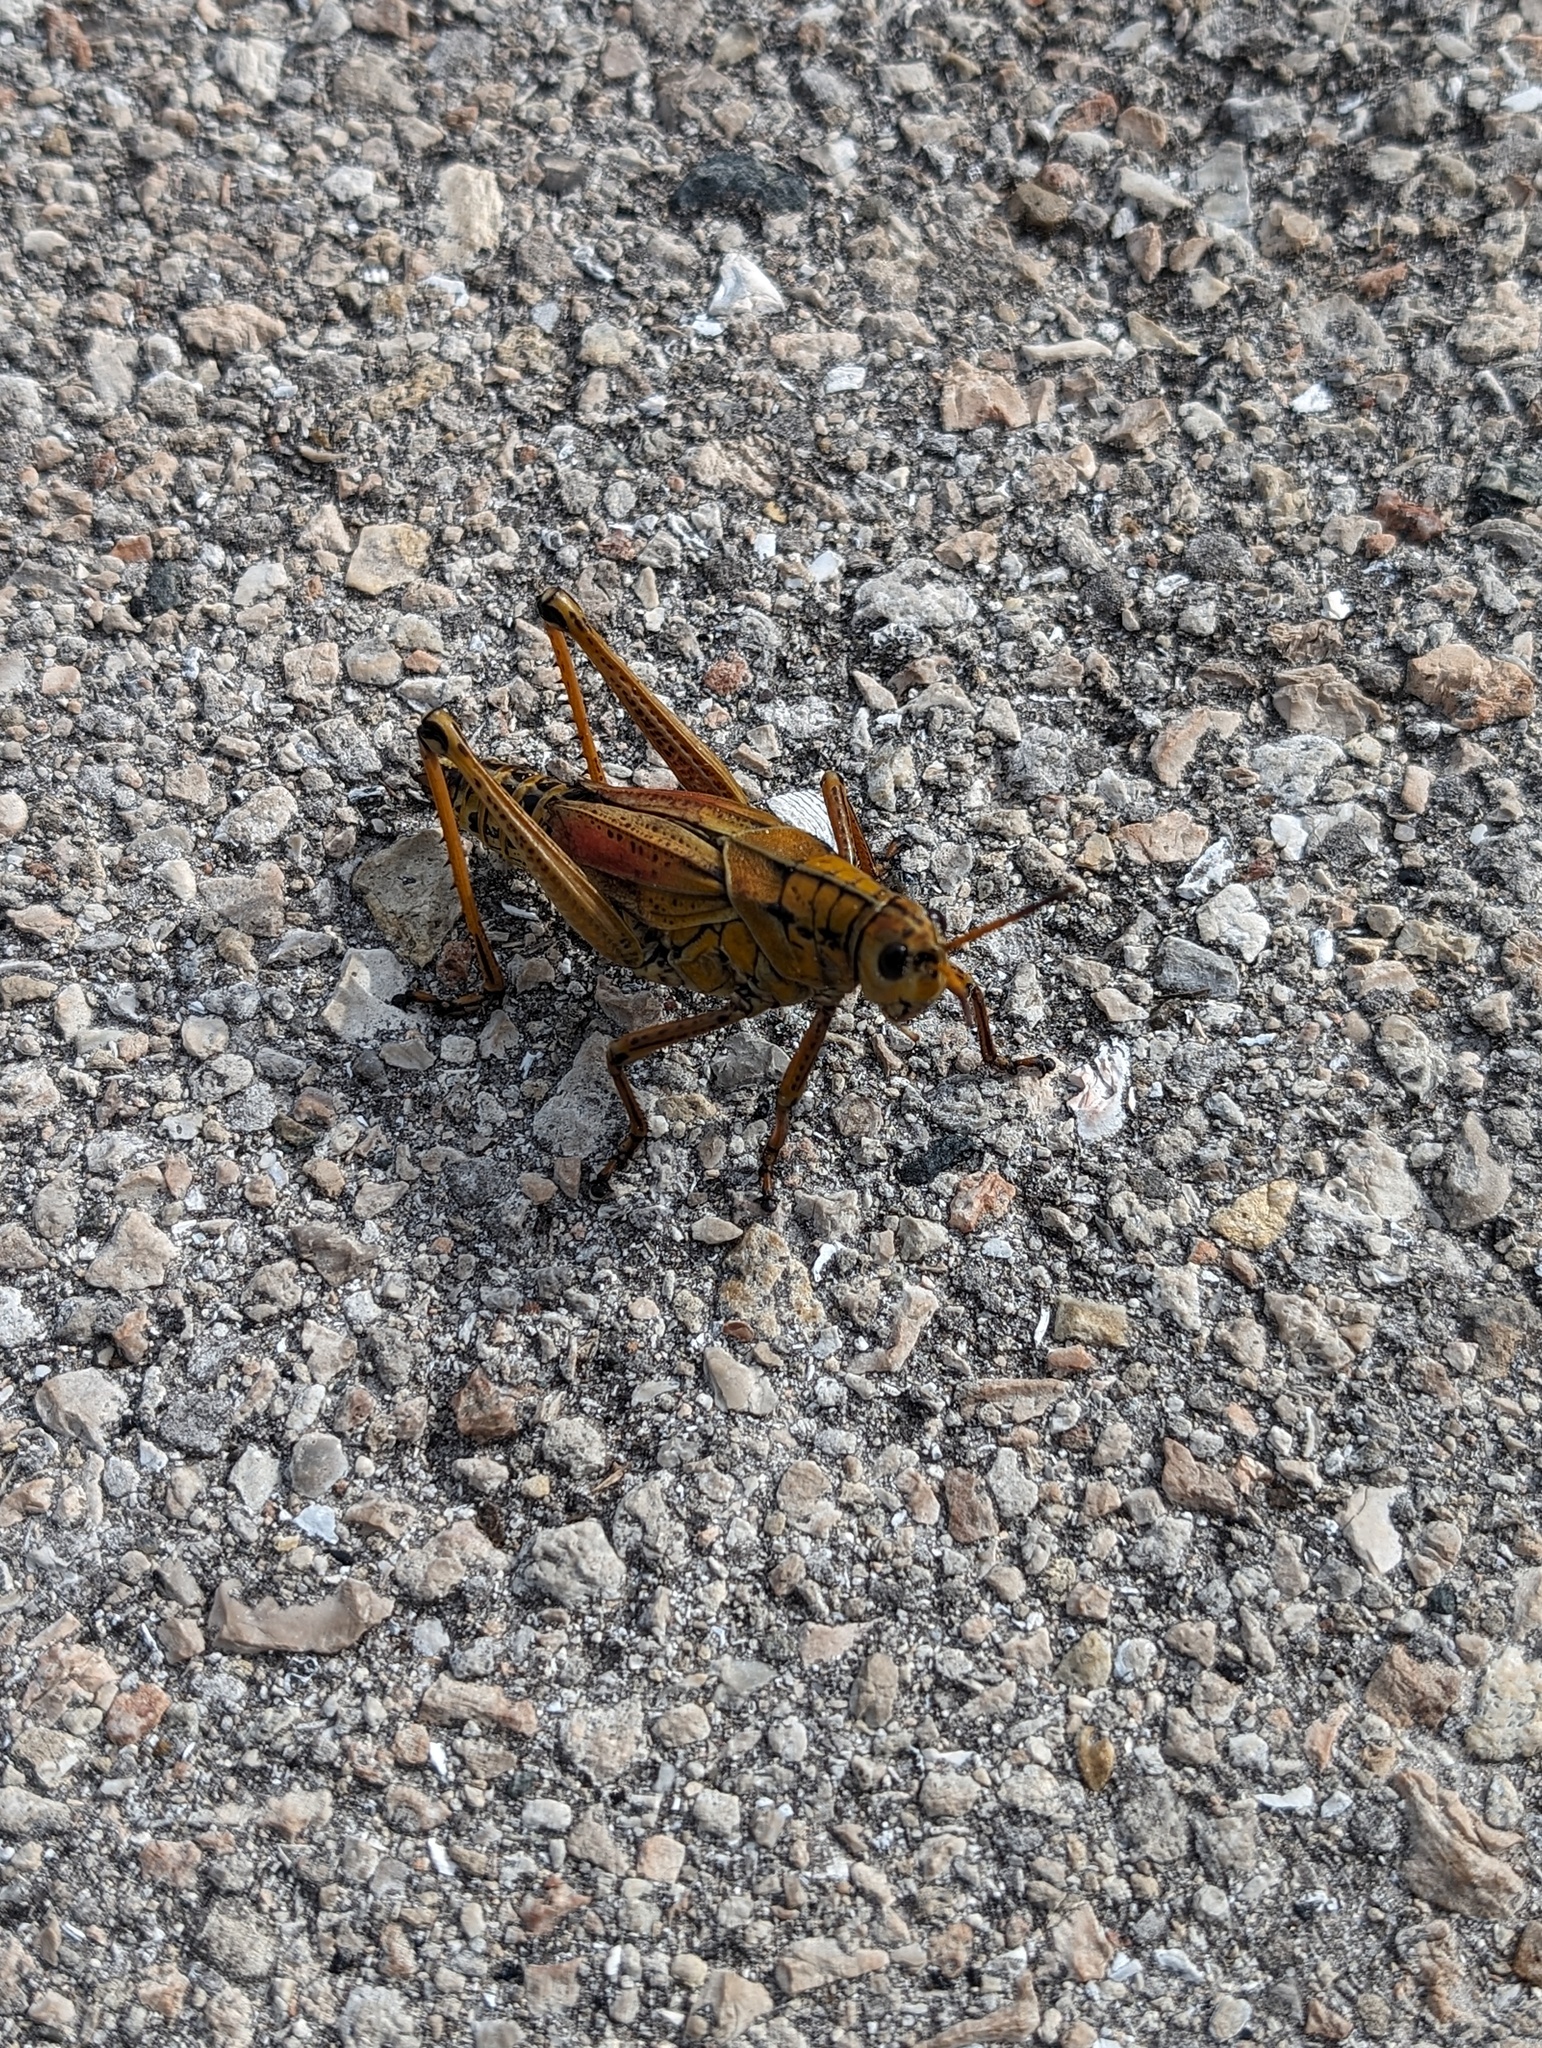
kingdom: Animalia
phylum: Arthropoda
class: Insecta
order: Orthoptera
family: Romaleidae
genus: Romalea
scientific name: Romalea microptera
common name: Eastern lubber grasshopper
